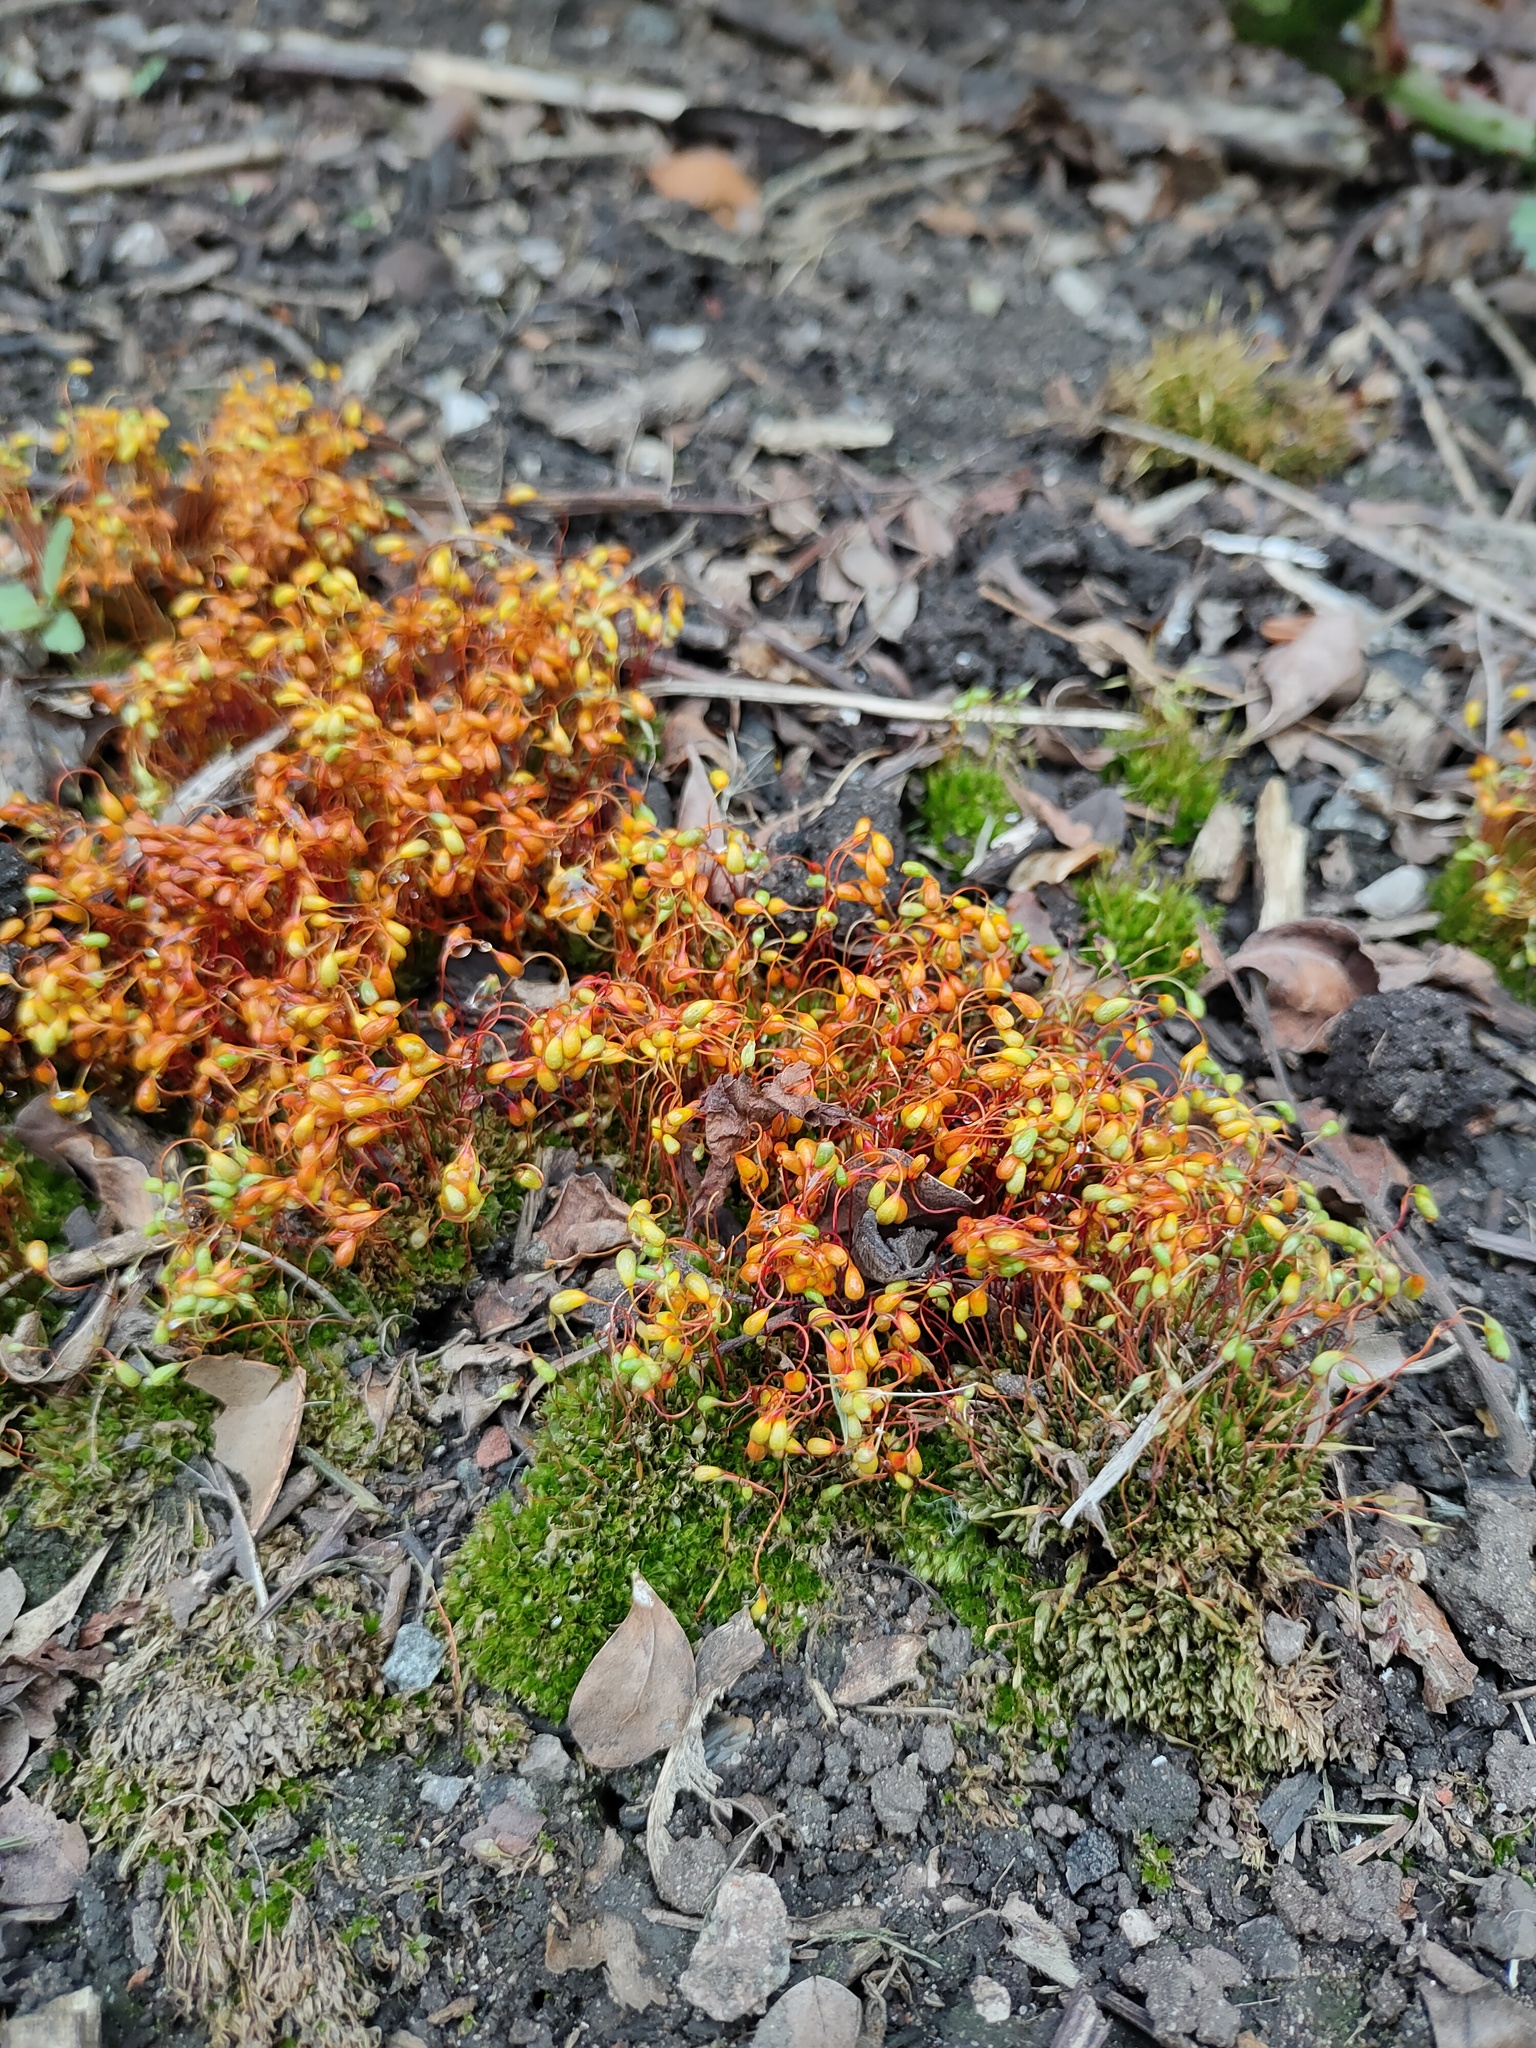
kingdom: Plantae
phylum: Bryophyta
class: Bryopsida
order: Funariales
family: Funariaceae
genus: Funaria
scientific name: Funaria hygrometrica
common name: Common cord moss
